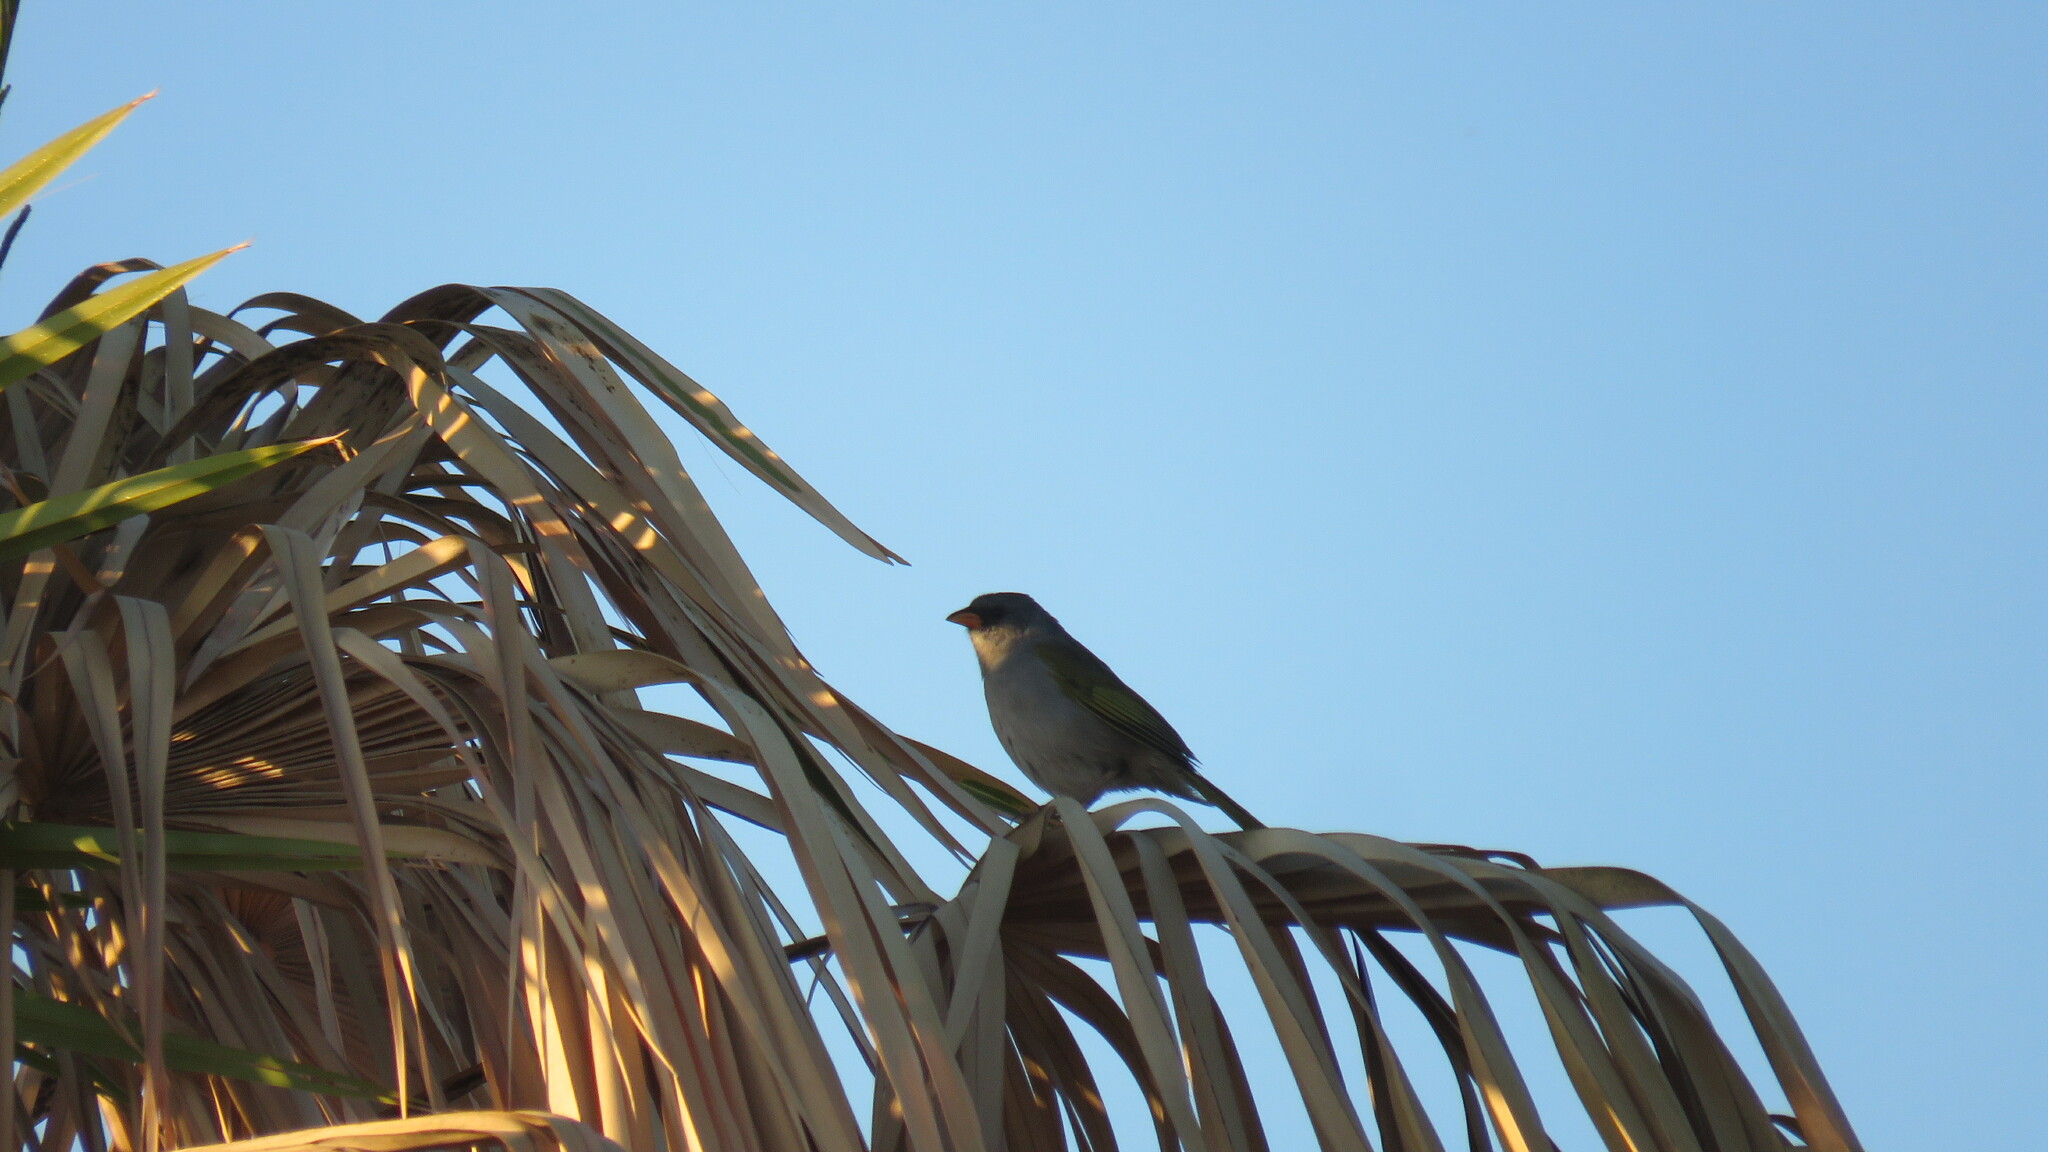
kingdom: Animalia
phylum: Chordata
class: Aves
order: Passeriformes
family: Thraupidae
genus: Embernagra
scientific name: Embernagra platensis
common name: Pampa finch
